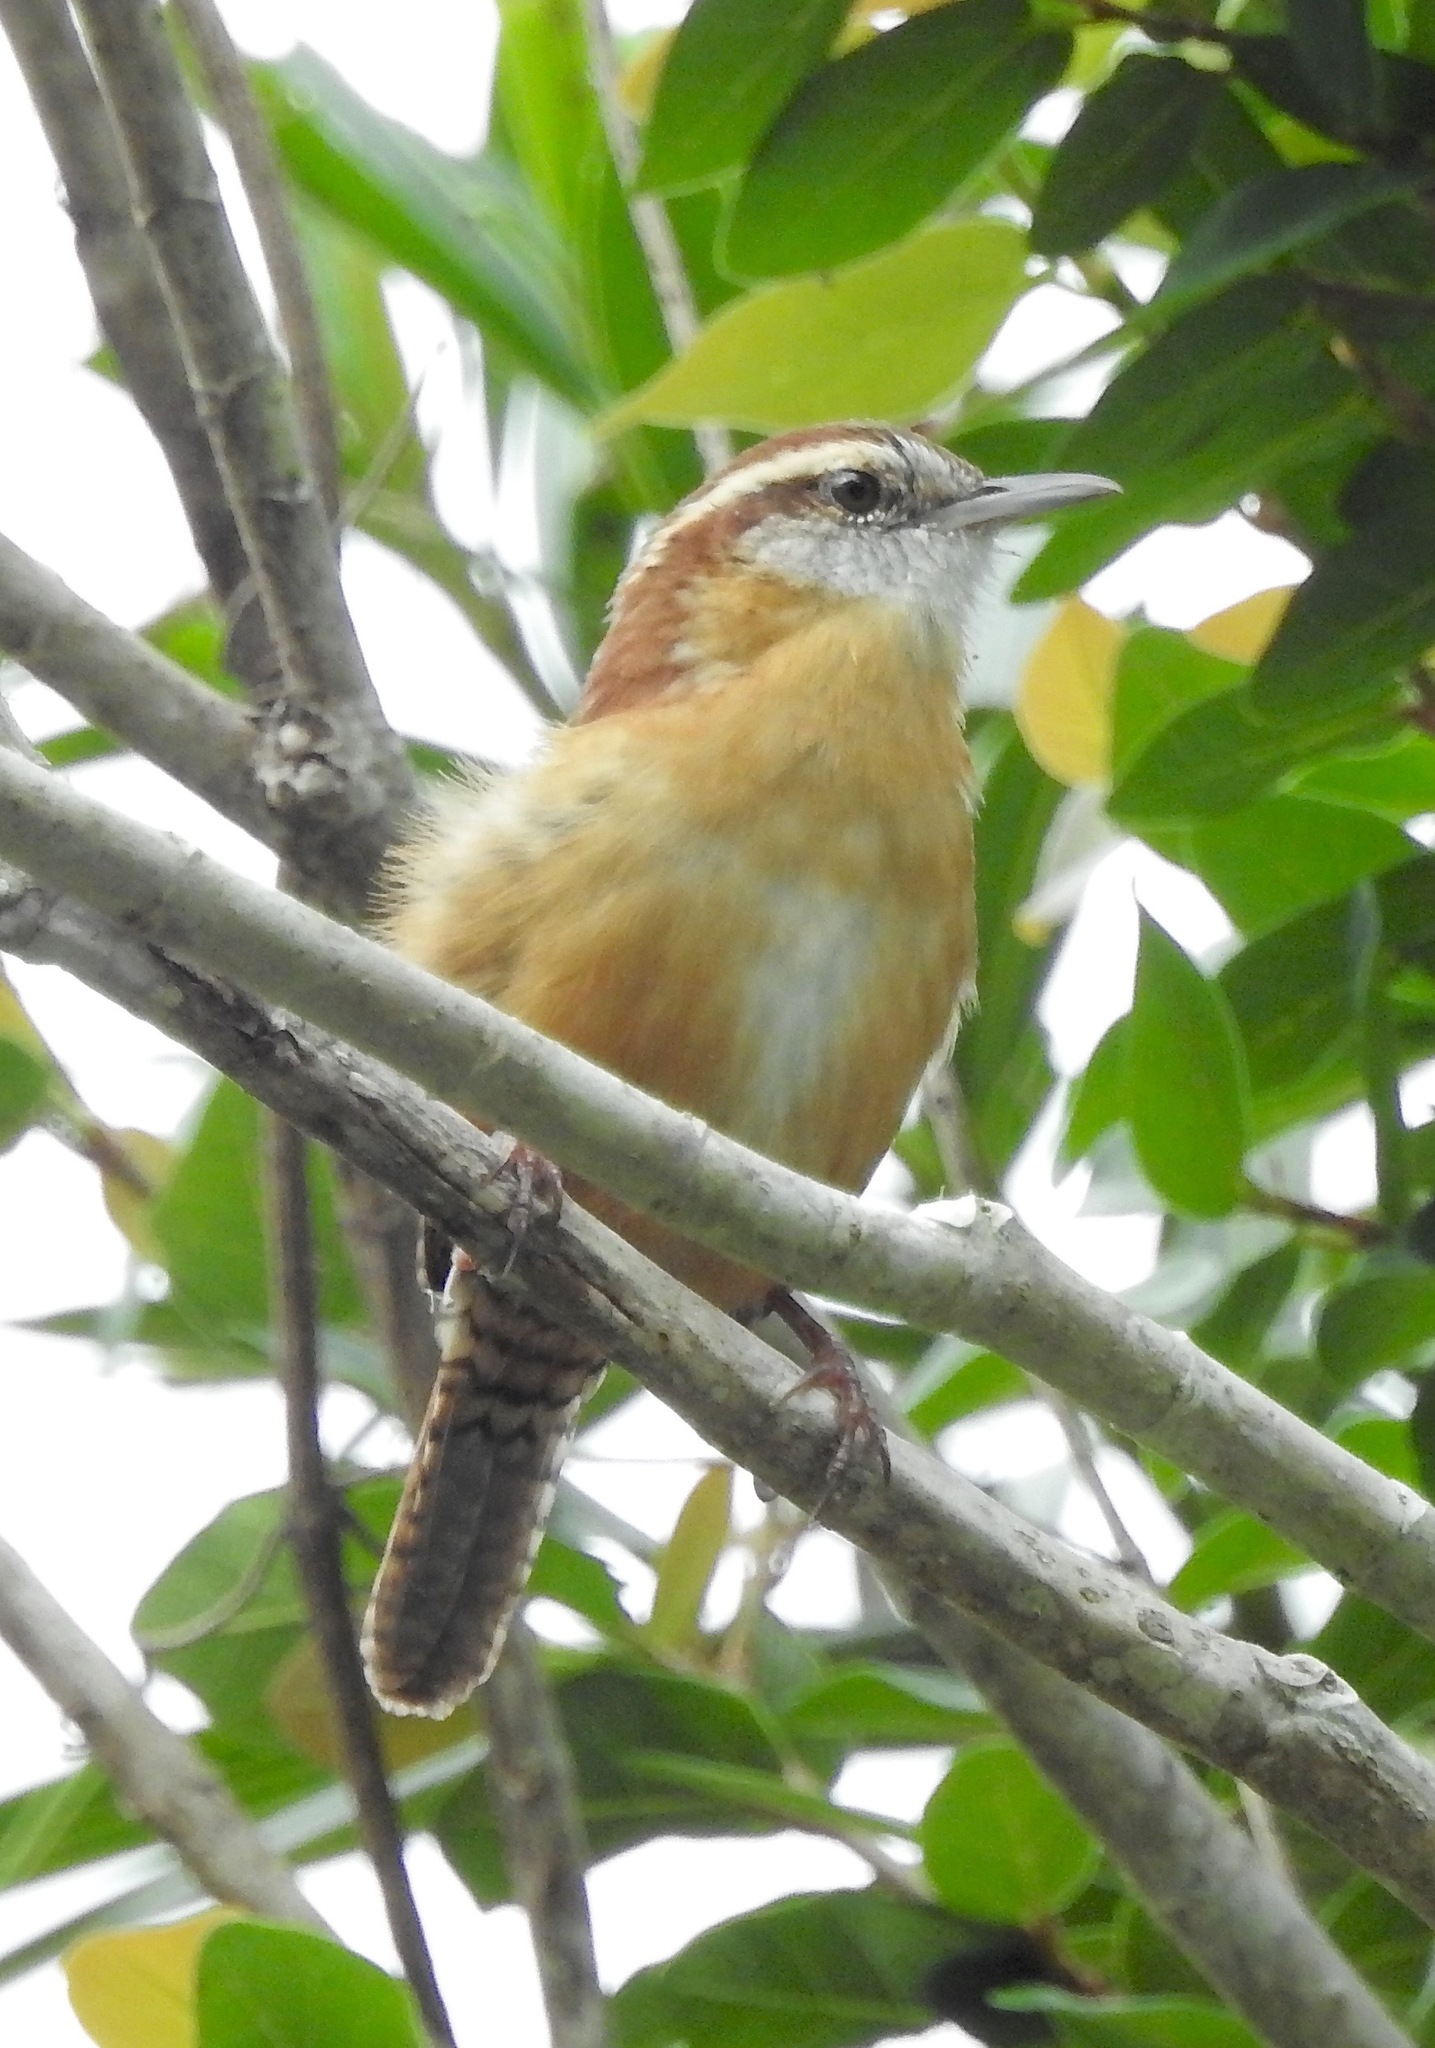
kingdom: Animalia
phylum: Chordata
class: Aves
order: Passeriformes
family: Troglodytidae
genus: Thryothorus
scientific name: Thryothorus ludovicianus
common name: Carolina wren
